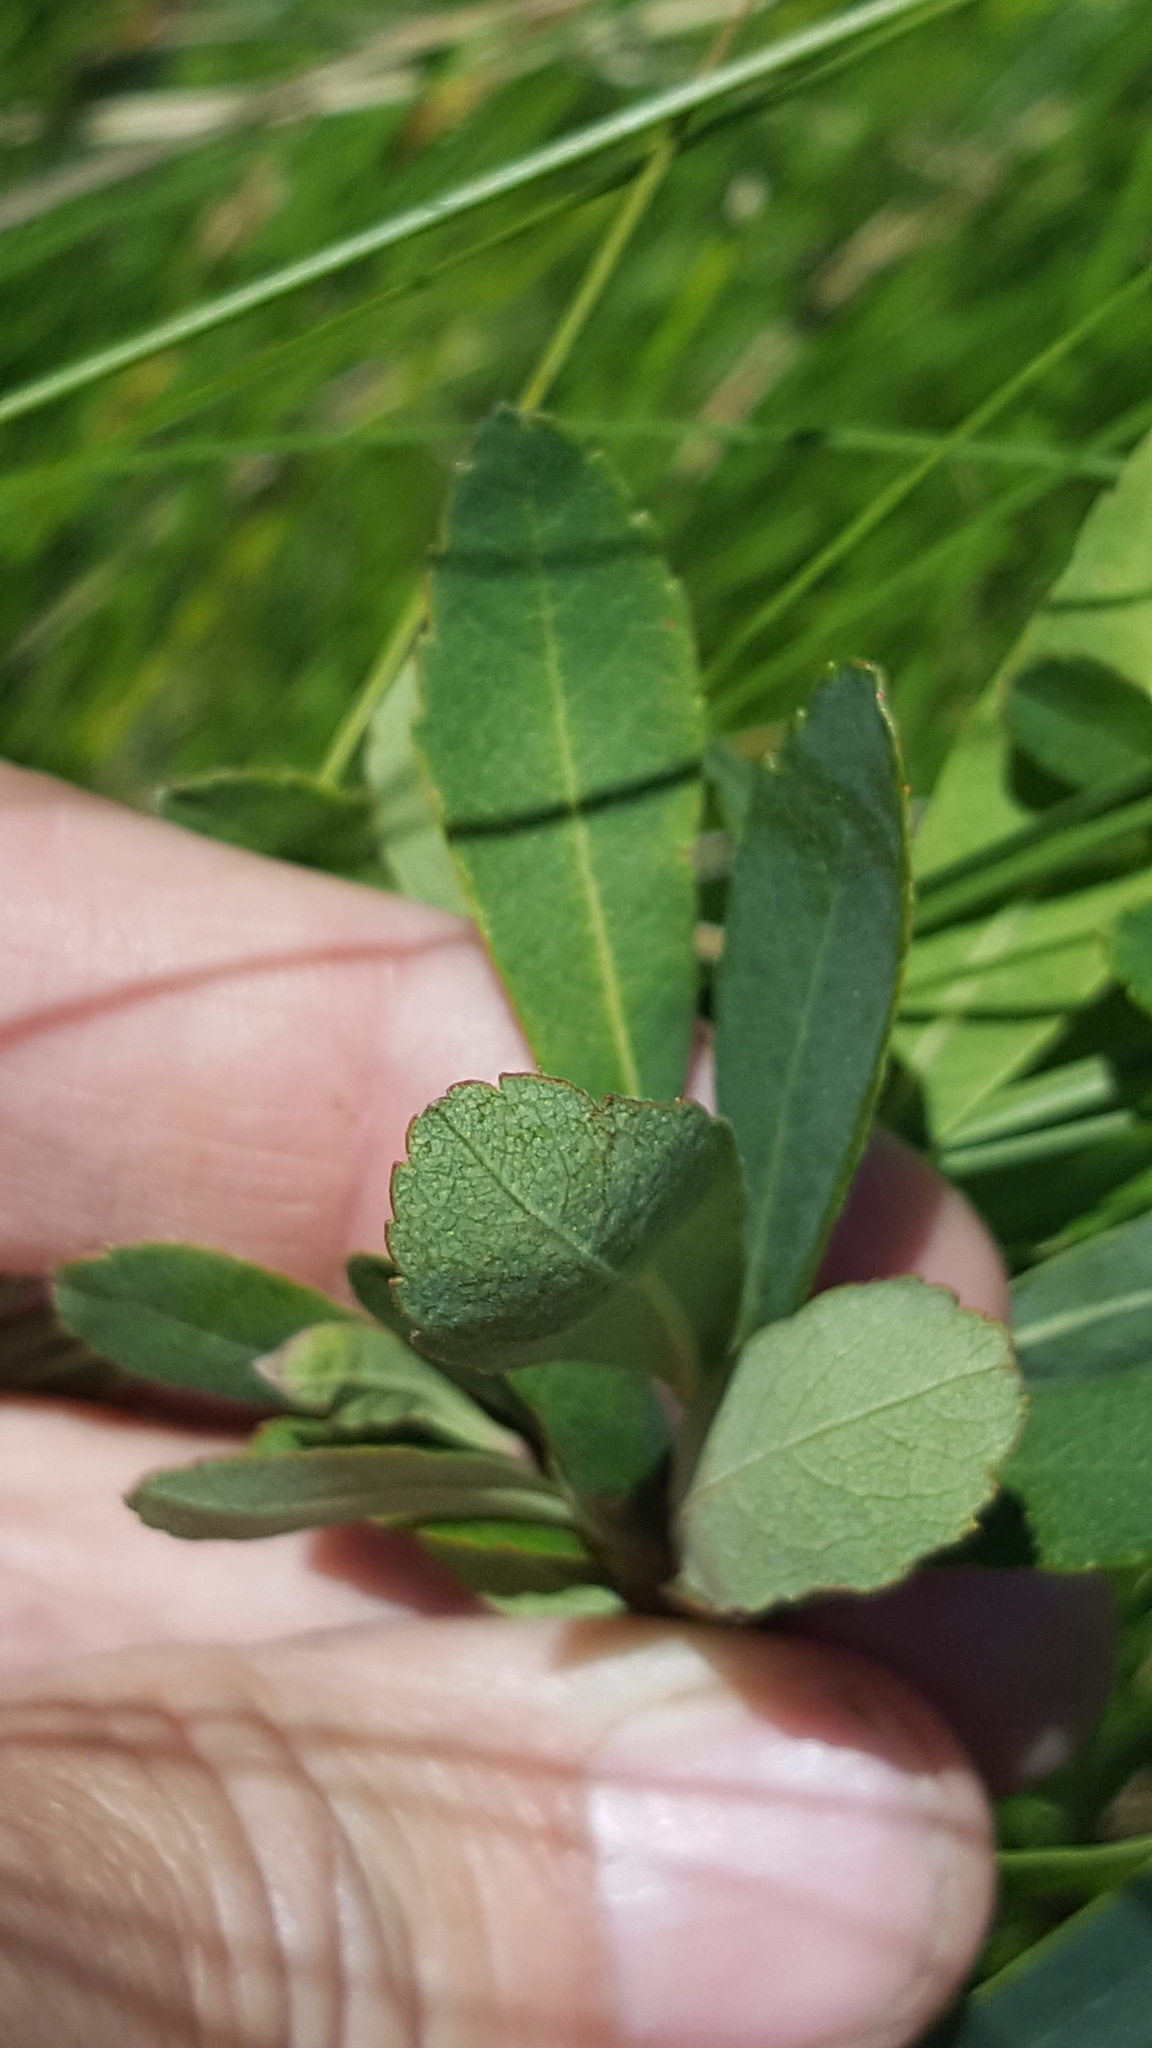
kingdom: Plantae
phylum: Tracheophyta
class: Magnoliopsida
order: Fagales
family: Myricaceae
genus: Myrica
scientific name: Myrica gale
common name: Sweet gale
